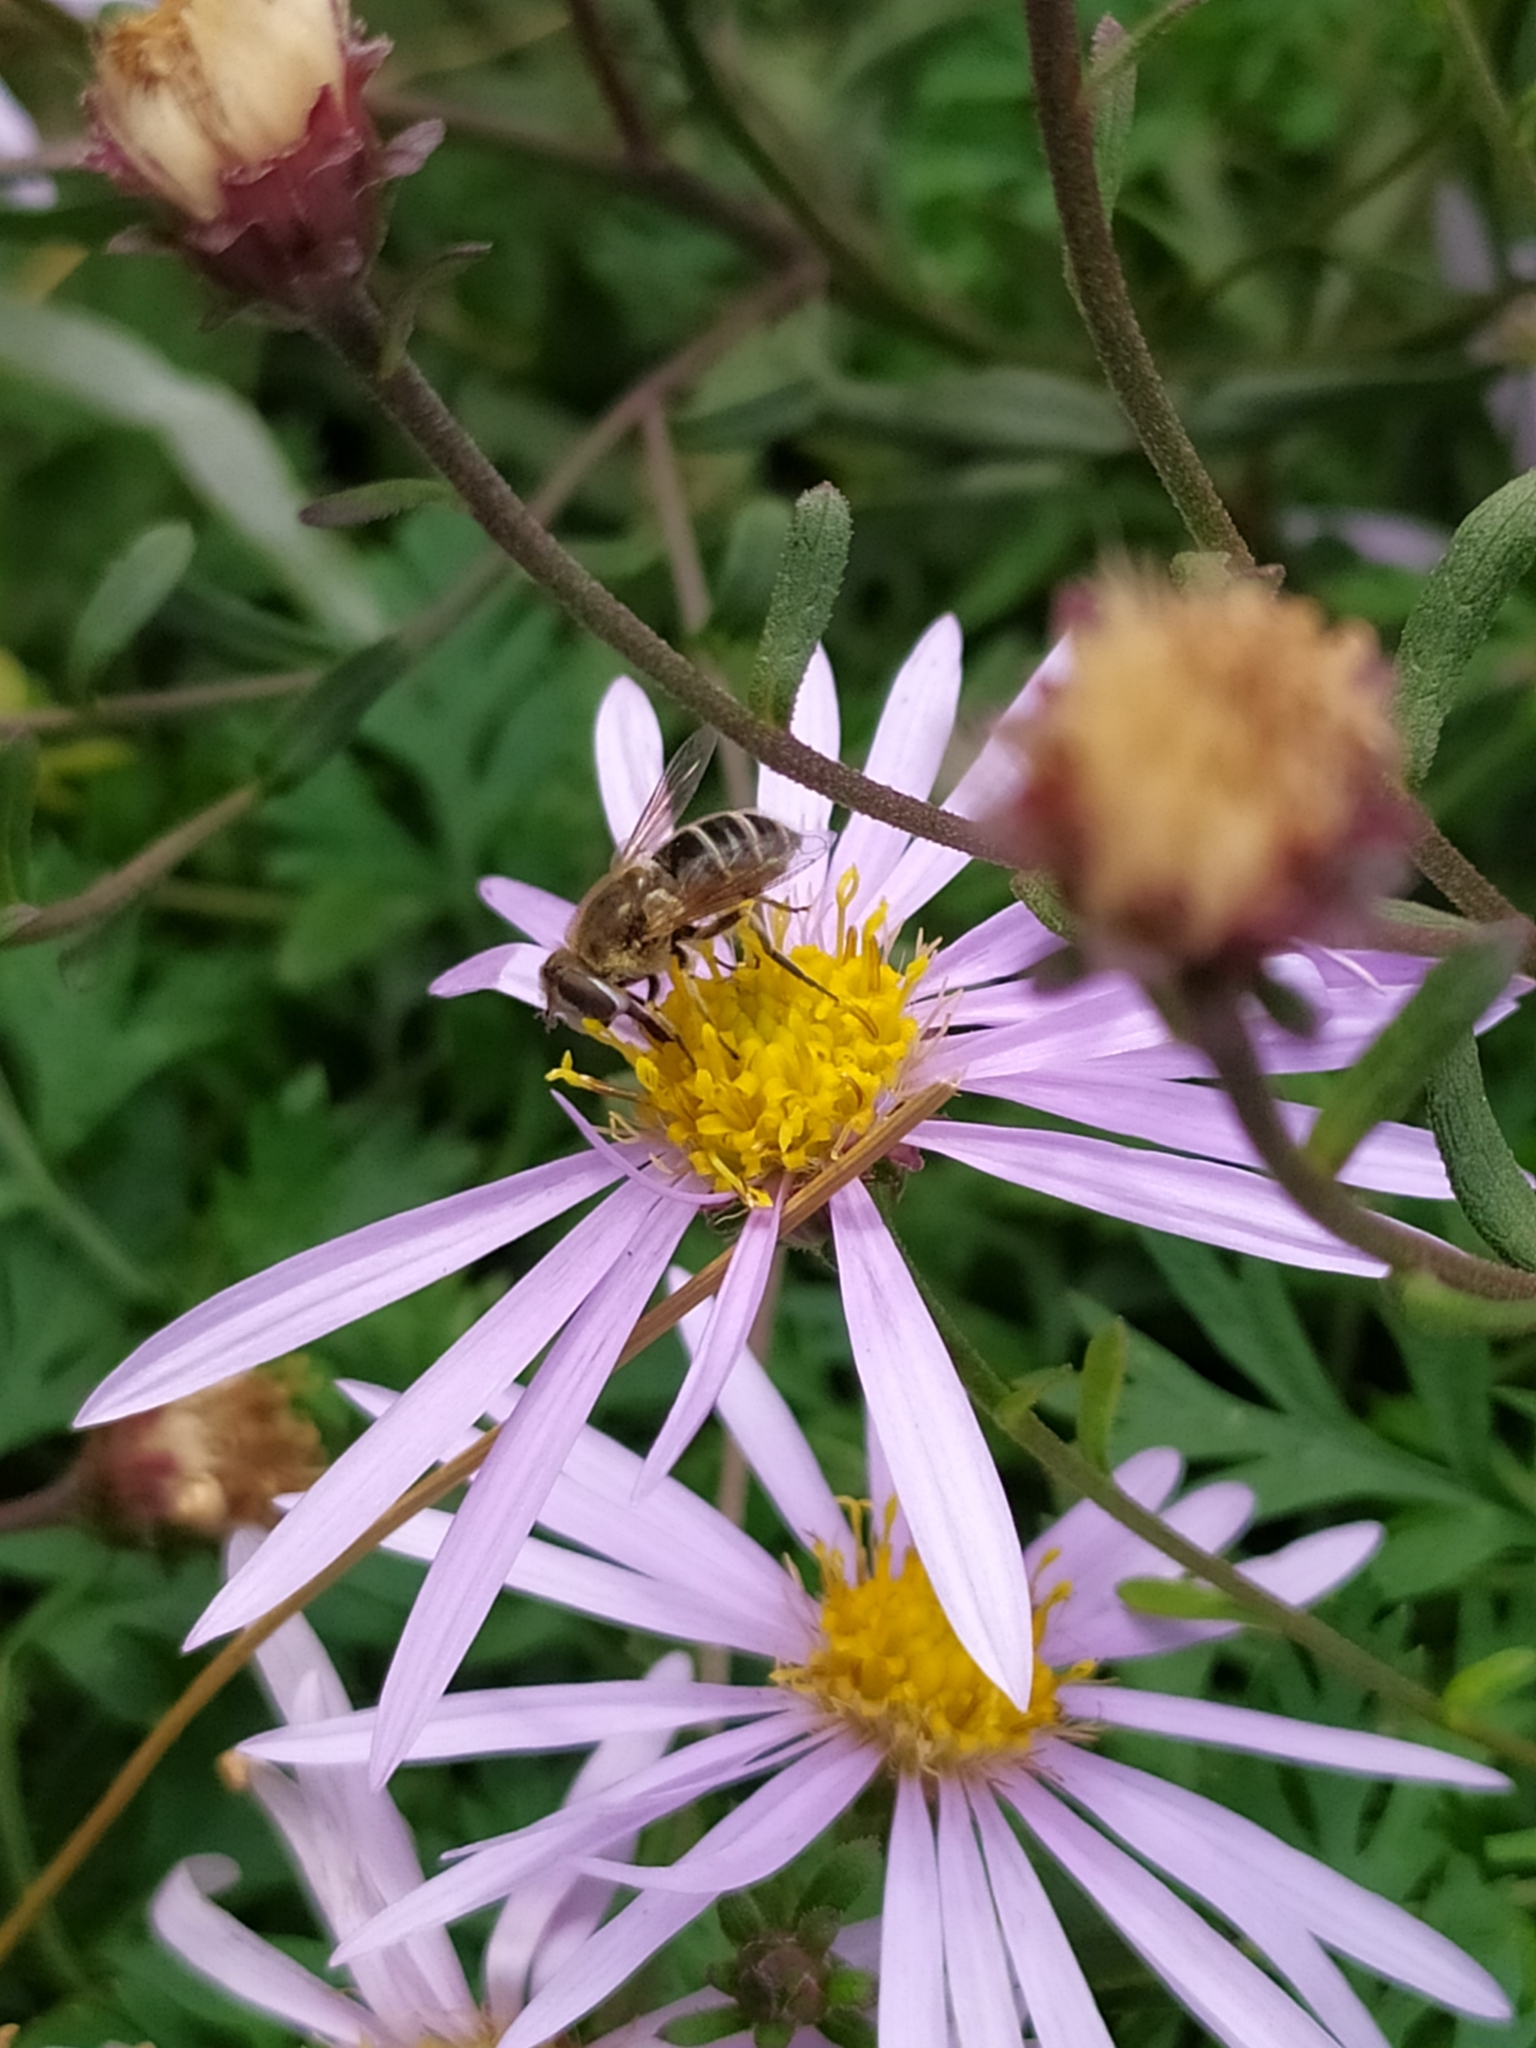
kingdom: Animalia
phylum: Arthropoda
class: Insecta
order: Diptera
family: Syrphidae
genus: Eristalis
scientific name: Eristalis arbustorum
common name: Hover fly
